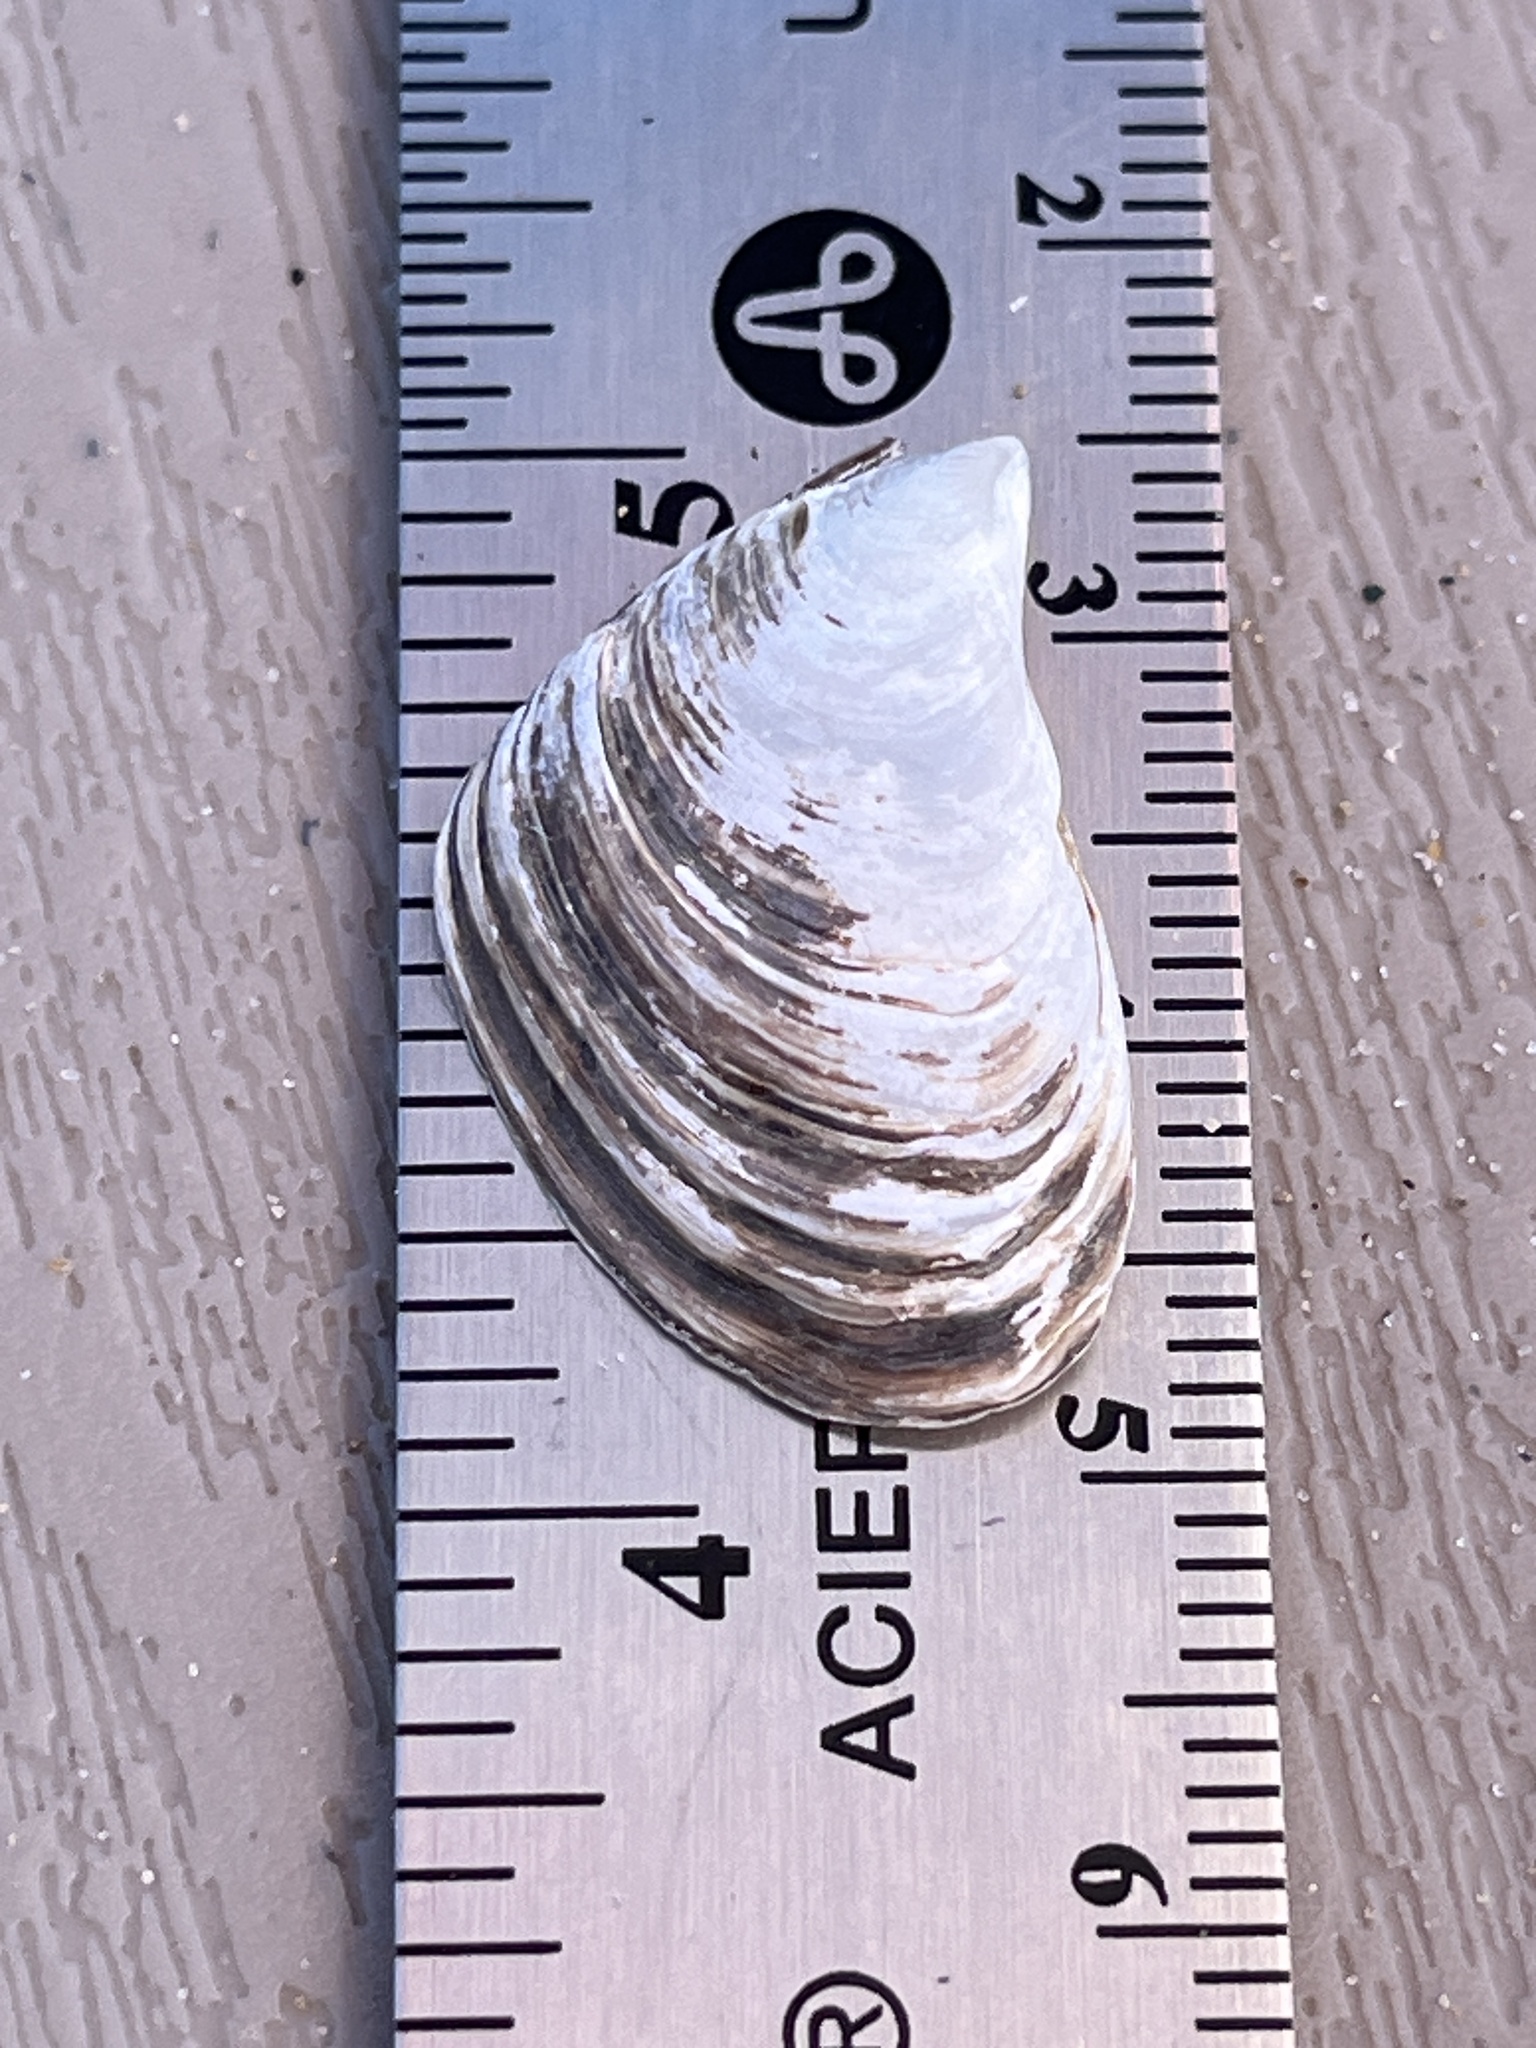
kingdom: Animalia
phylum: Mollusca
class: Bivalvia
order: Myida
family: Dreissenidae
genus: Dreissena
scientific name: Dreissena bugensis
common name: Quagga mussel
